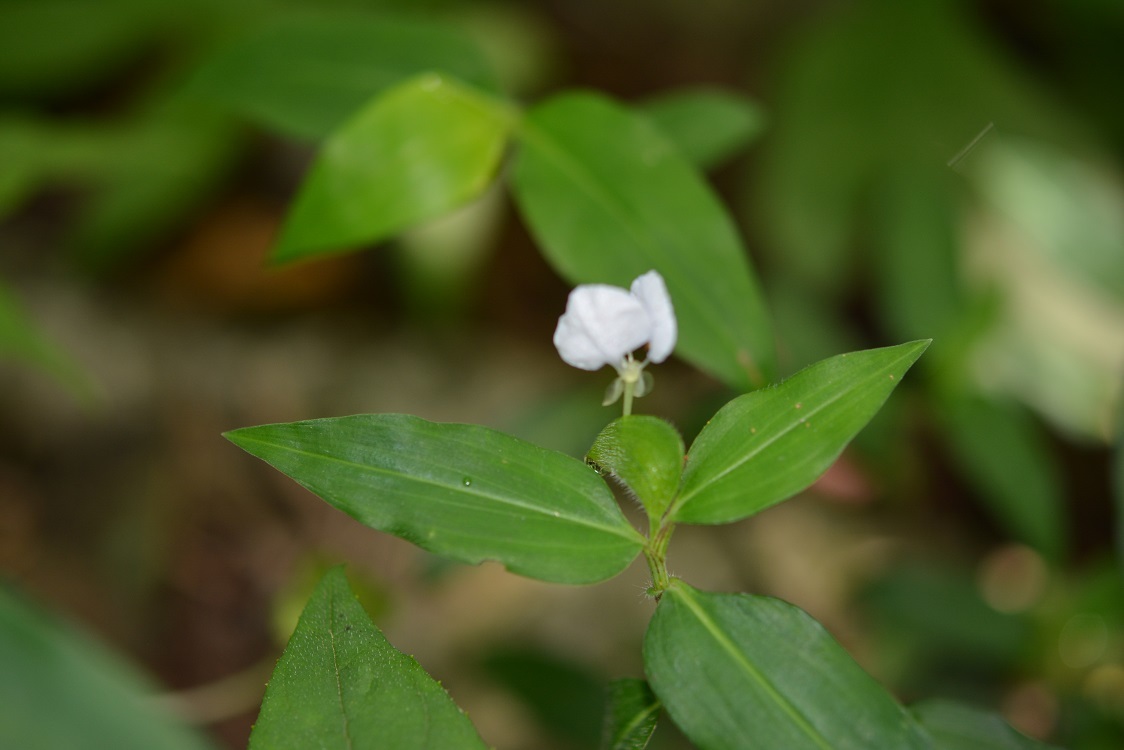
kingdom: Plantae
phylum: Tracheophyta
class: Liliopsida
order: Commelinales
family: Commelinaceae
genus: Commelina
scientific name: Commelina rufipes
